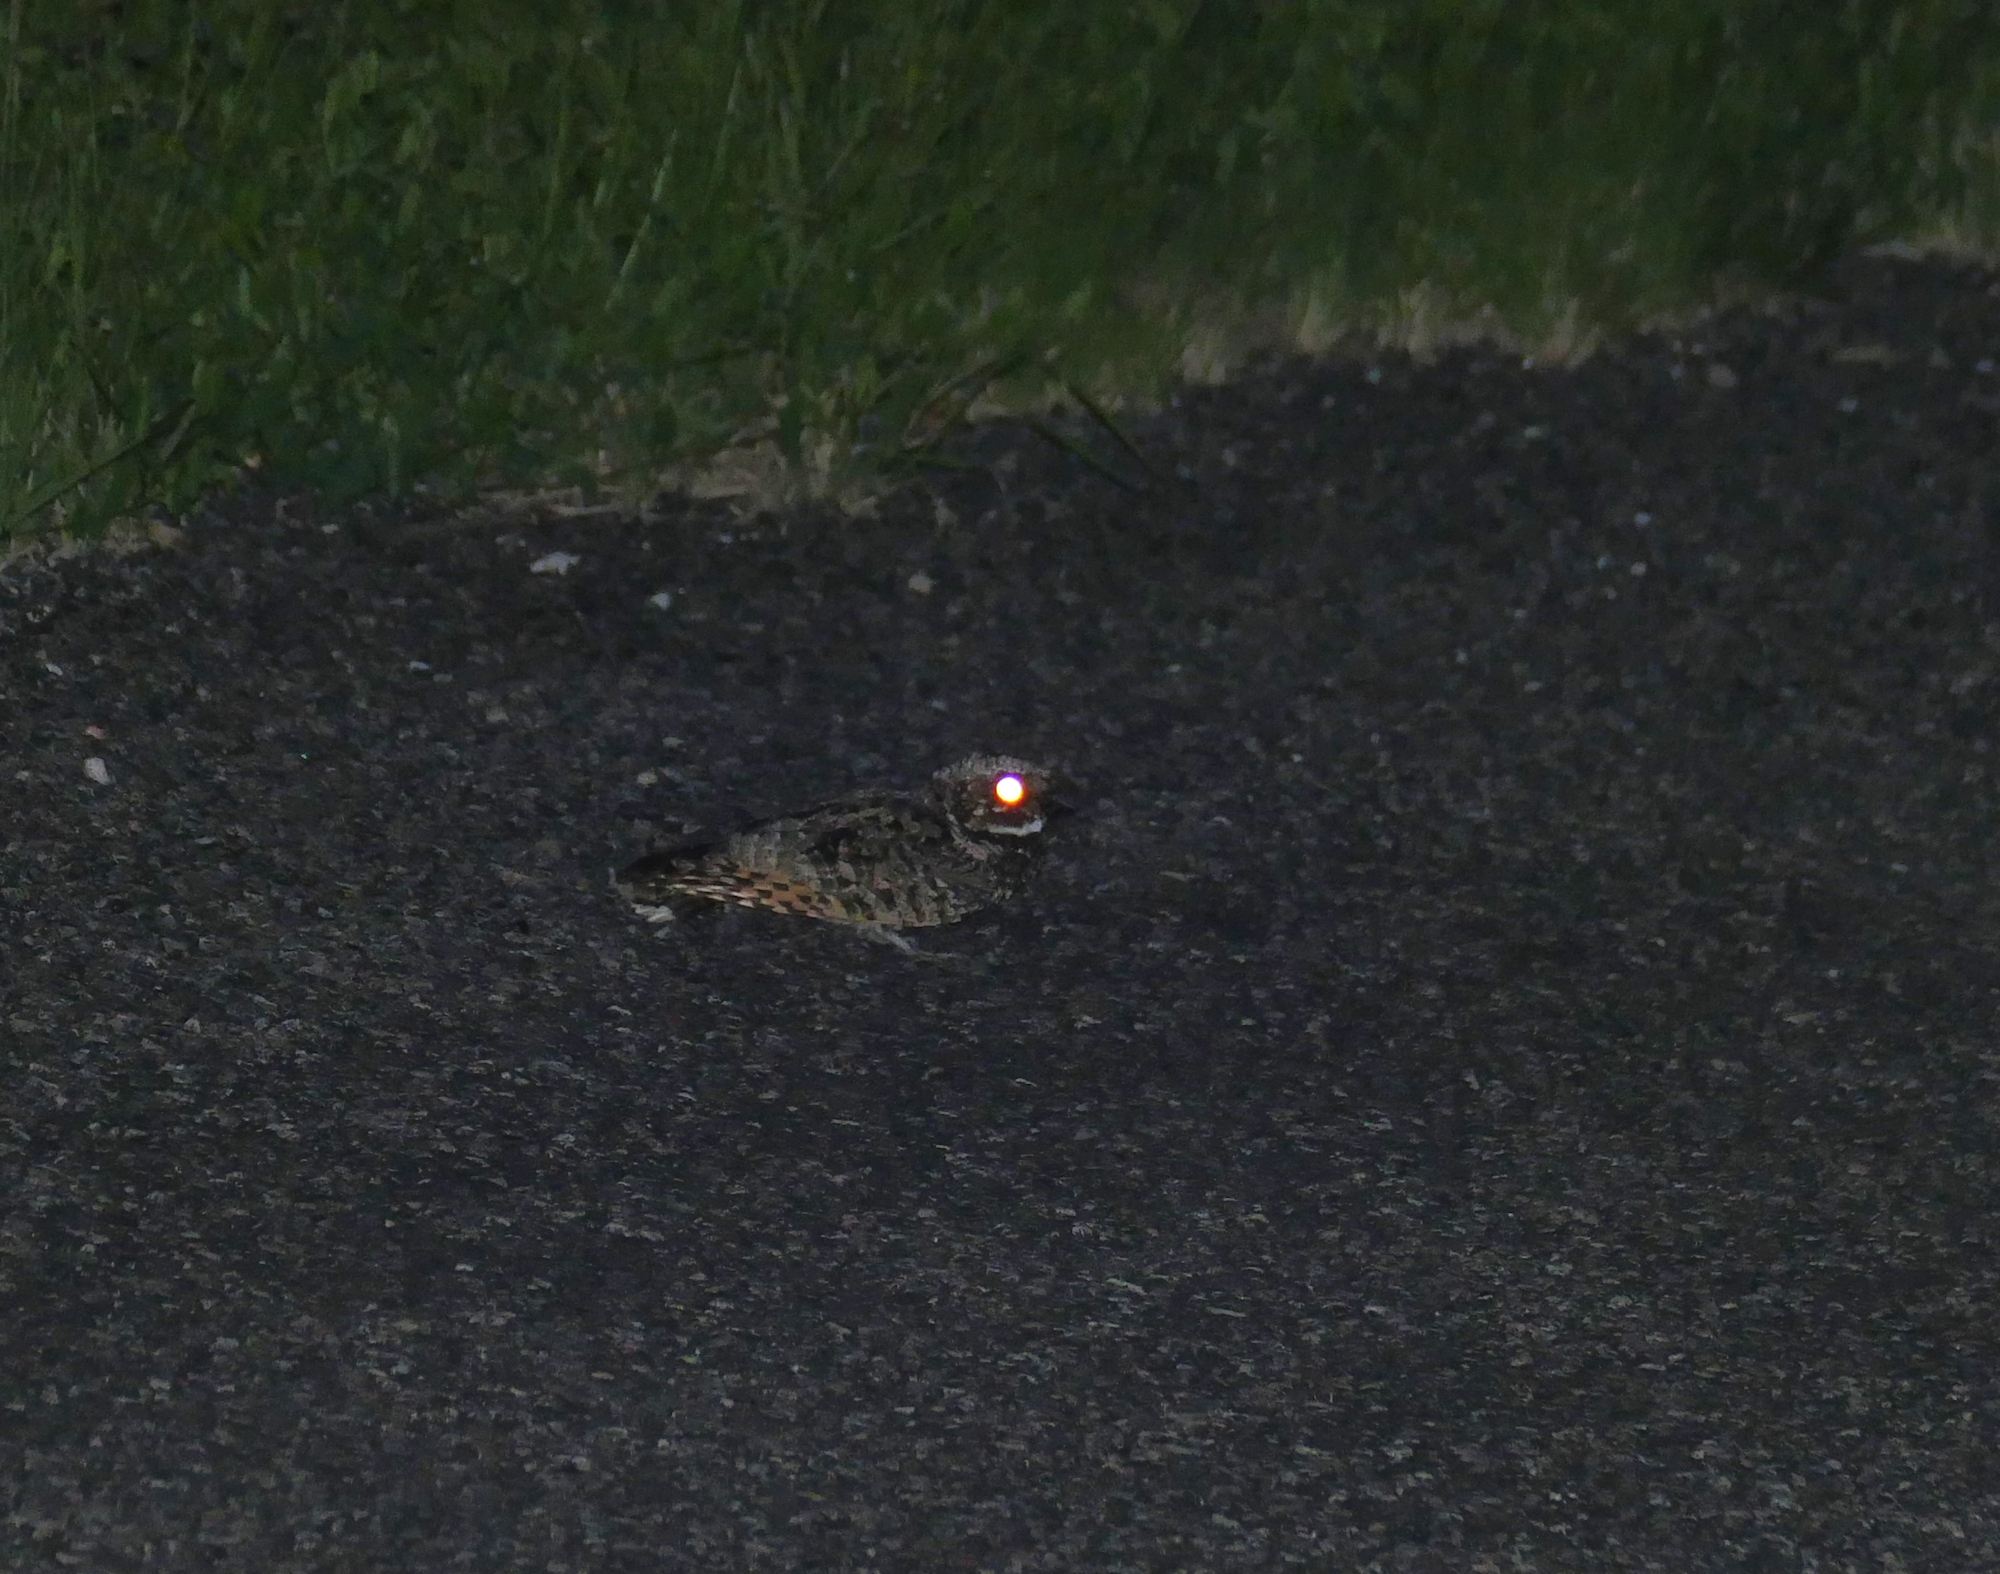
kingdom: Animalia
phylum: Chordata
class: Aves
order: Caprimulgiformes
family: Caprimulgidae
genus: Phalaenoptilus
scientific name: Phalaenoptilus nuttallii
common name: Common poorwill
